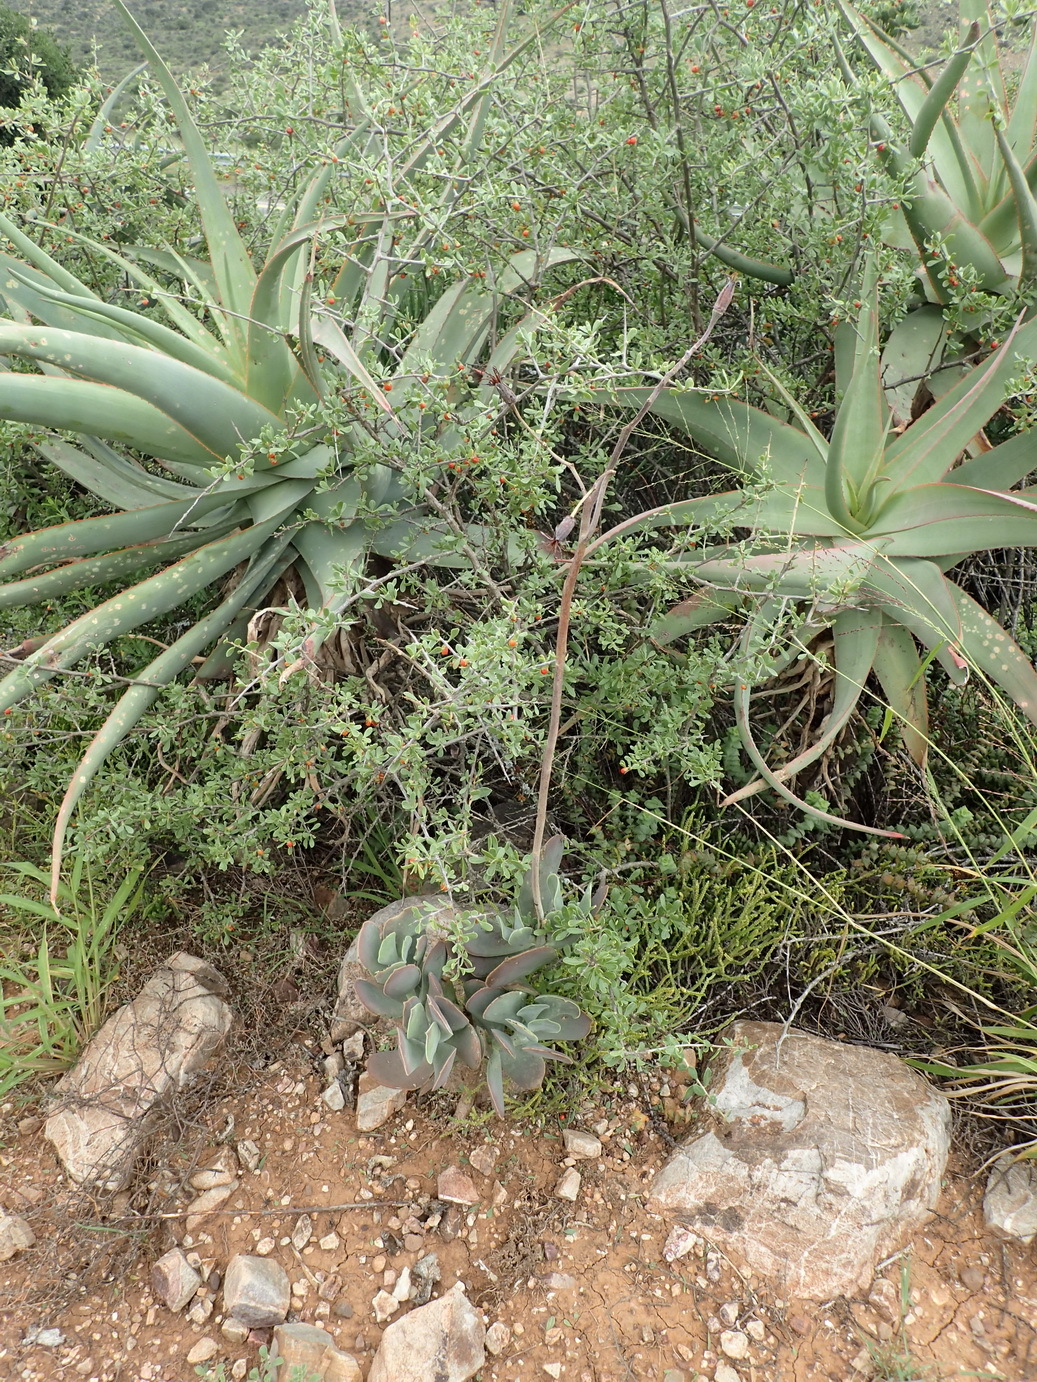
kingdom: Plantae
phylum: Tracheophyta
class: Liliopsida
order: Asparagales
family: Asphodelaceae
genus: Aloe
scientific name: Aloe speciosa
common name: Beautiful aloe
